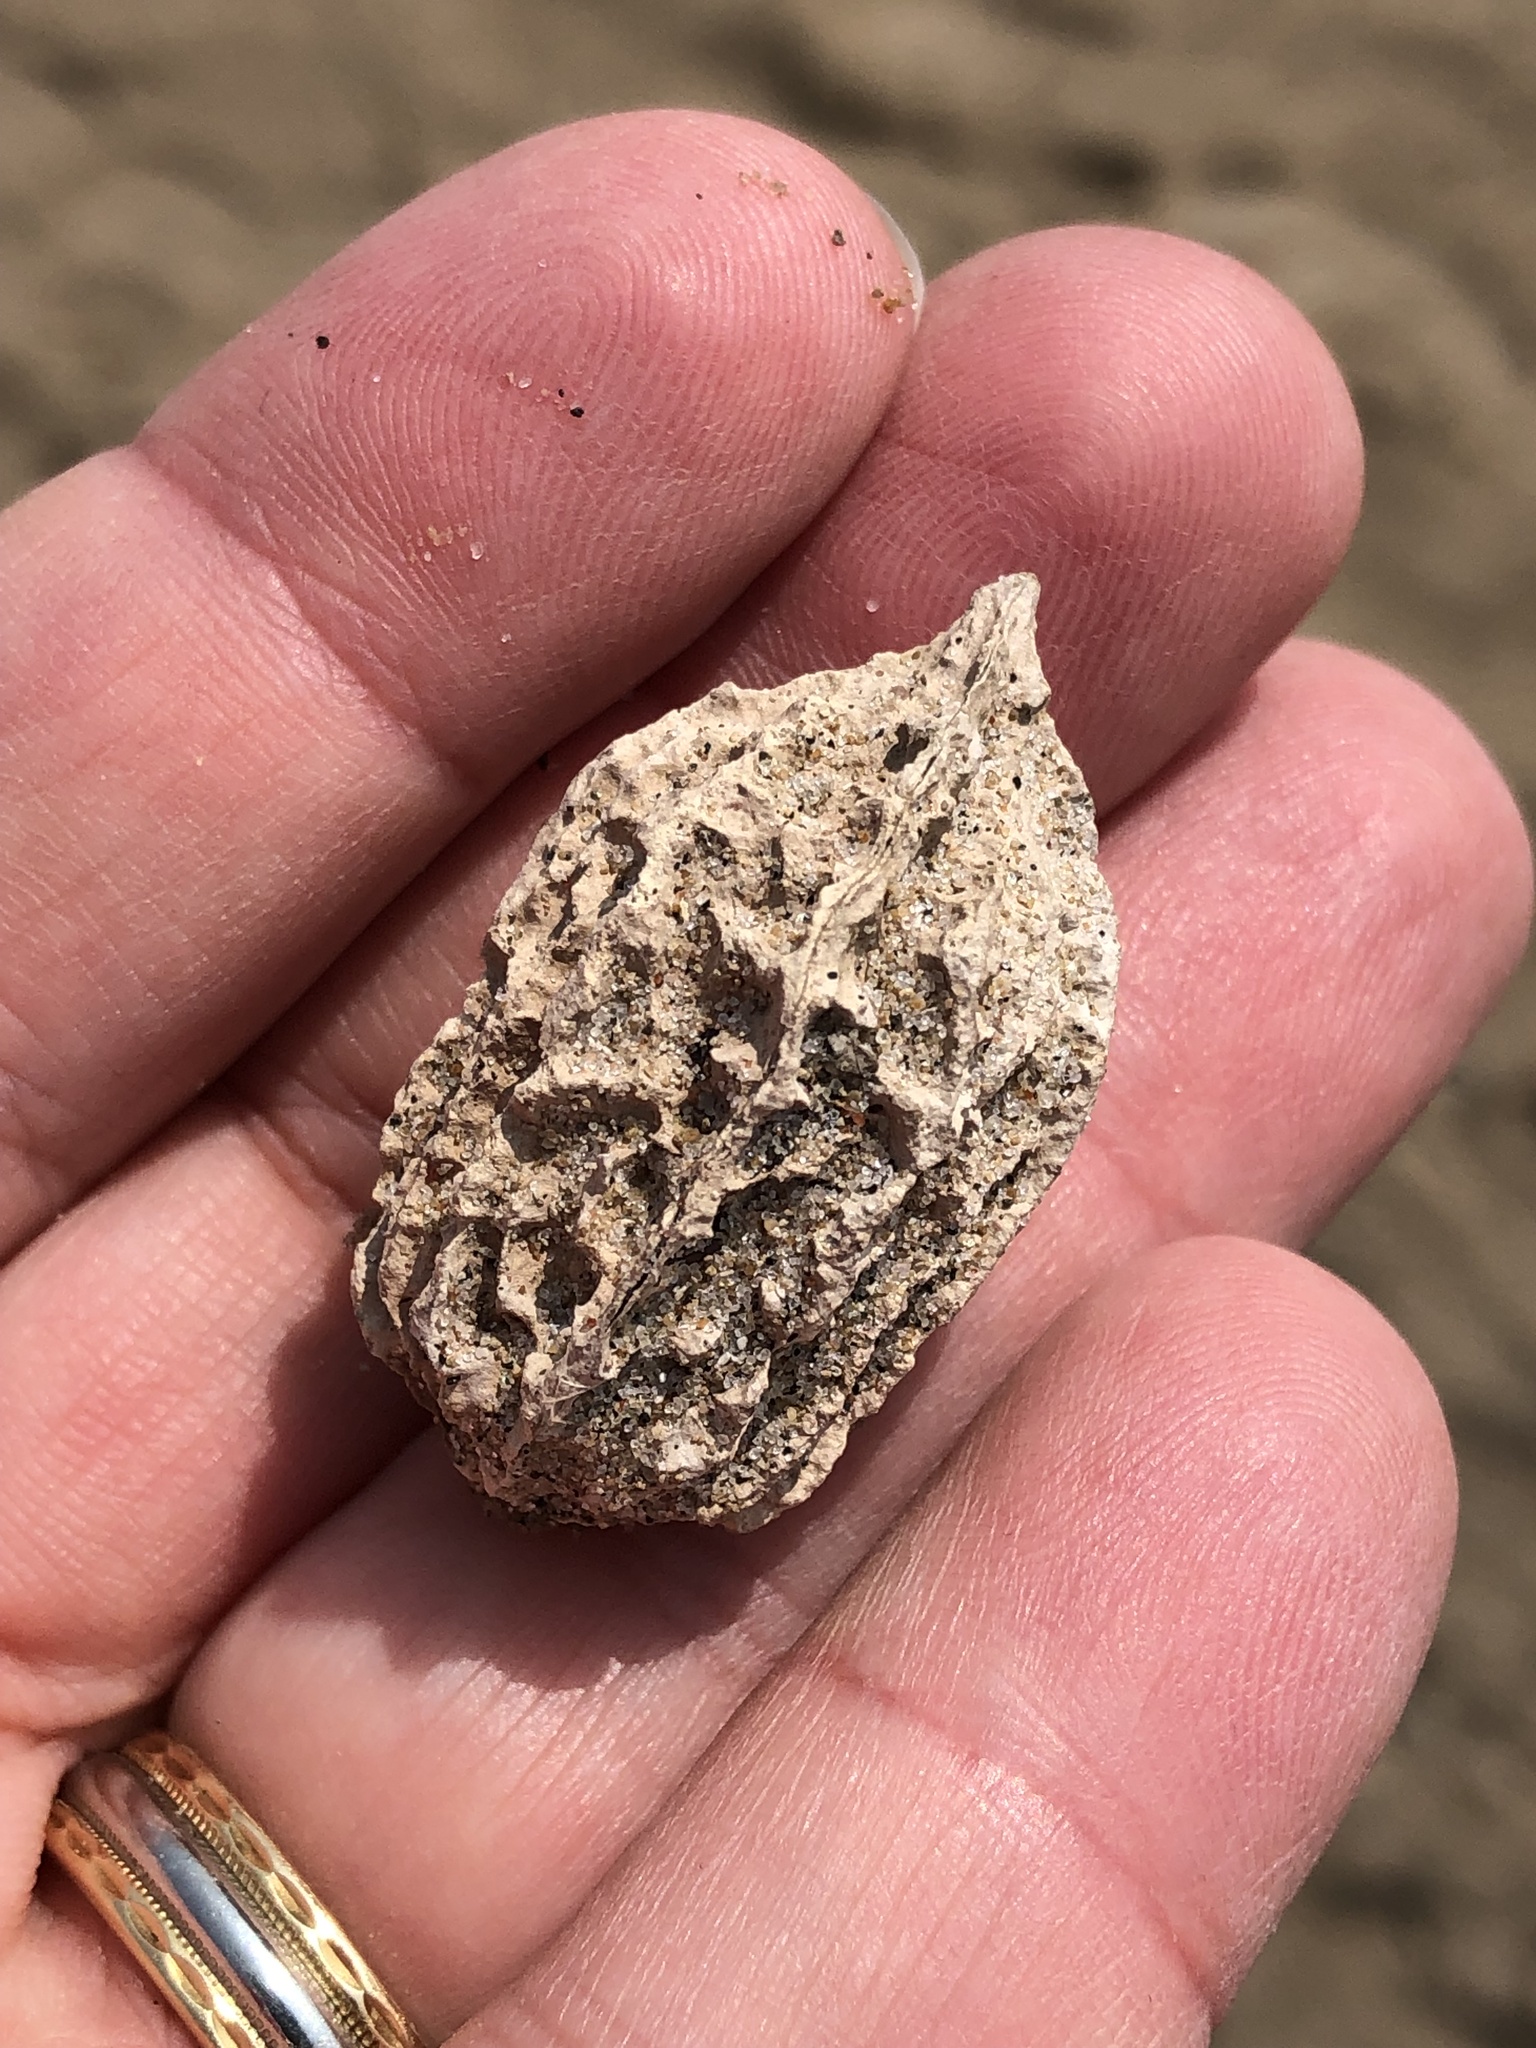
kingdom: Plantae
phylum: Tracheophyta
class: Magnoliopsida
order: Fagales
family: Juglandaceae
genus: Juglans
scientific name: Juglans cinerea
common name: Butternut
